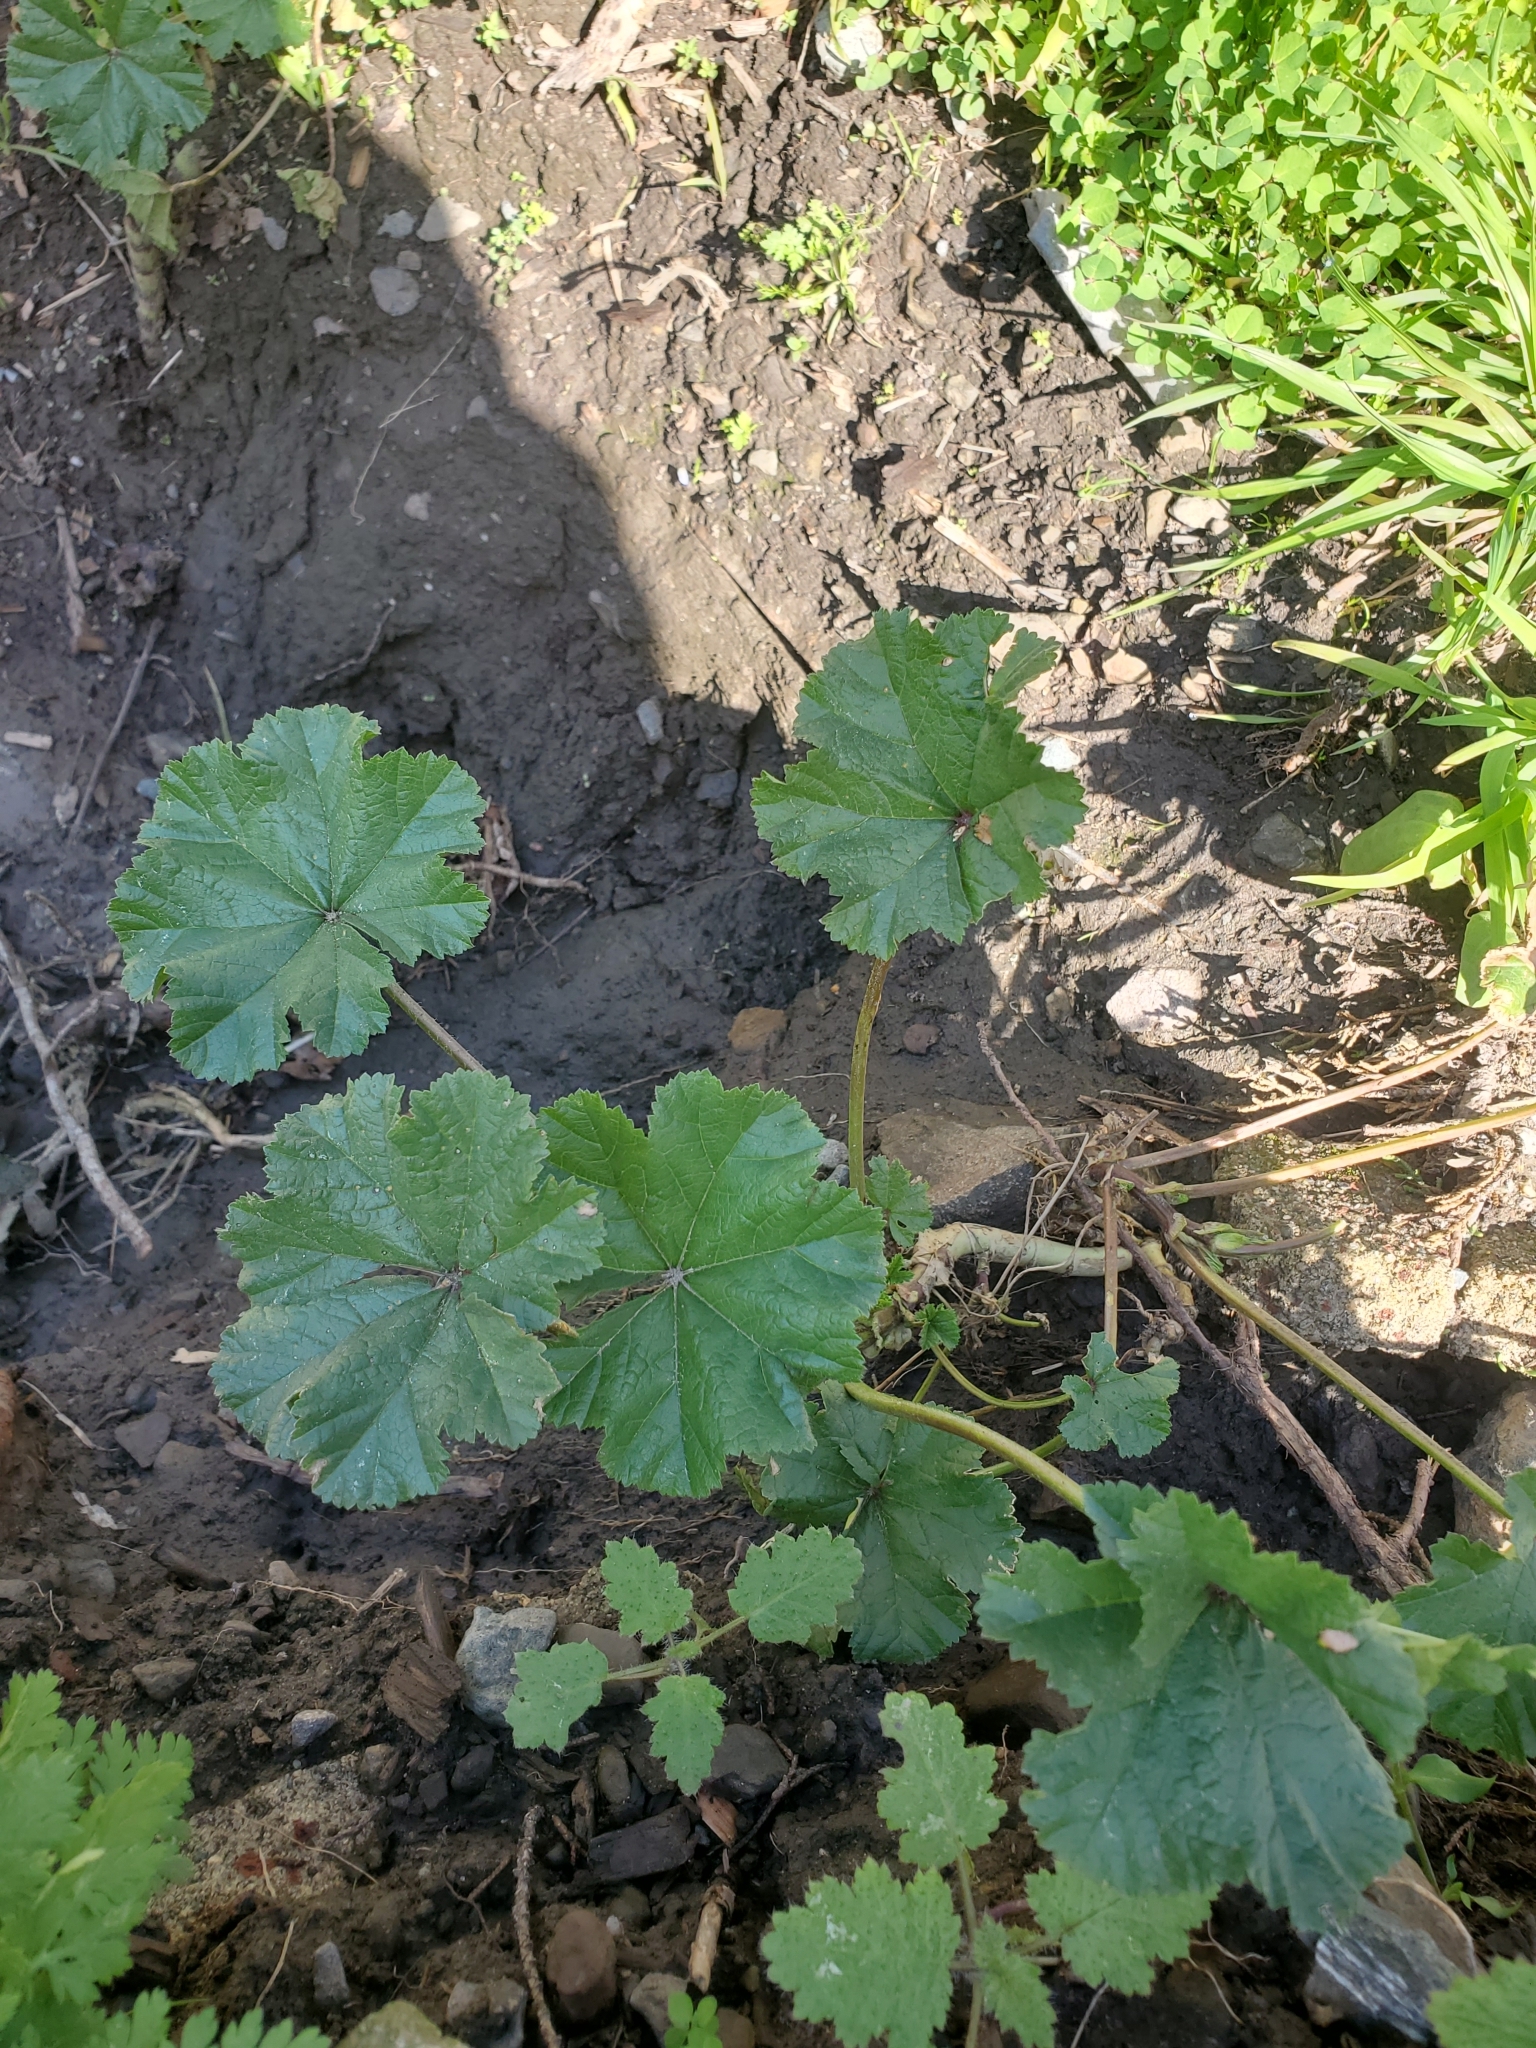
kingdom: Plantae
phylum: Tracheophyta
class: Magnoliopsida
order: Malvales
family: Malvaceae
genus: Malva
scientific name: Malva
